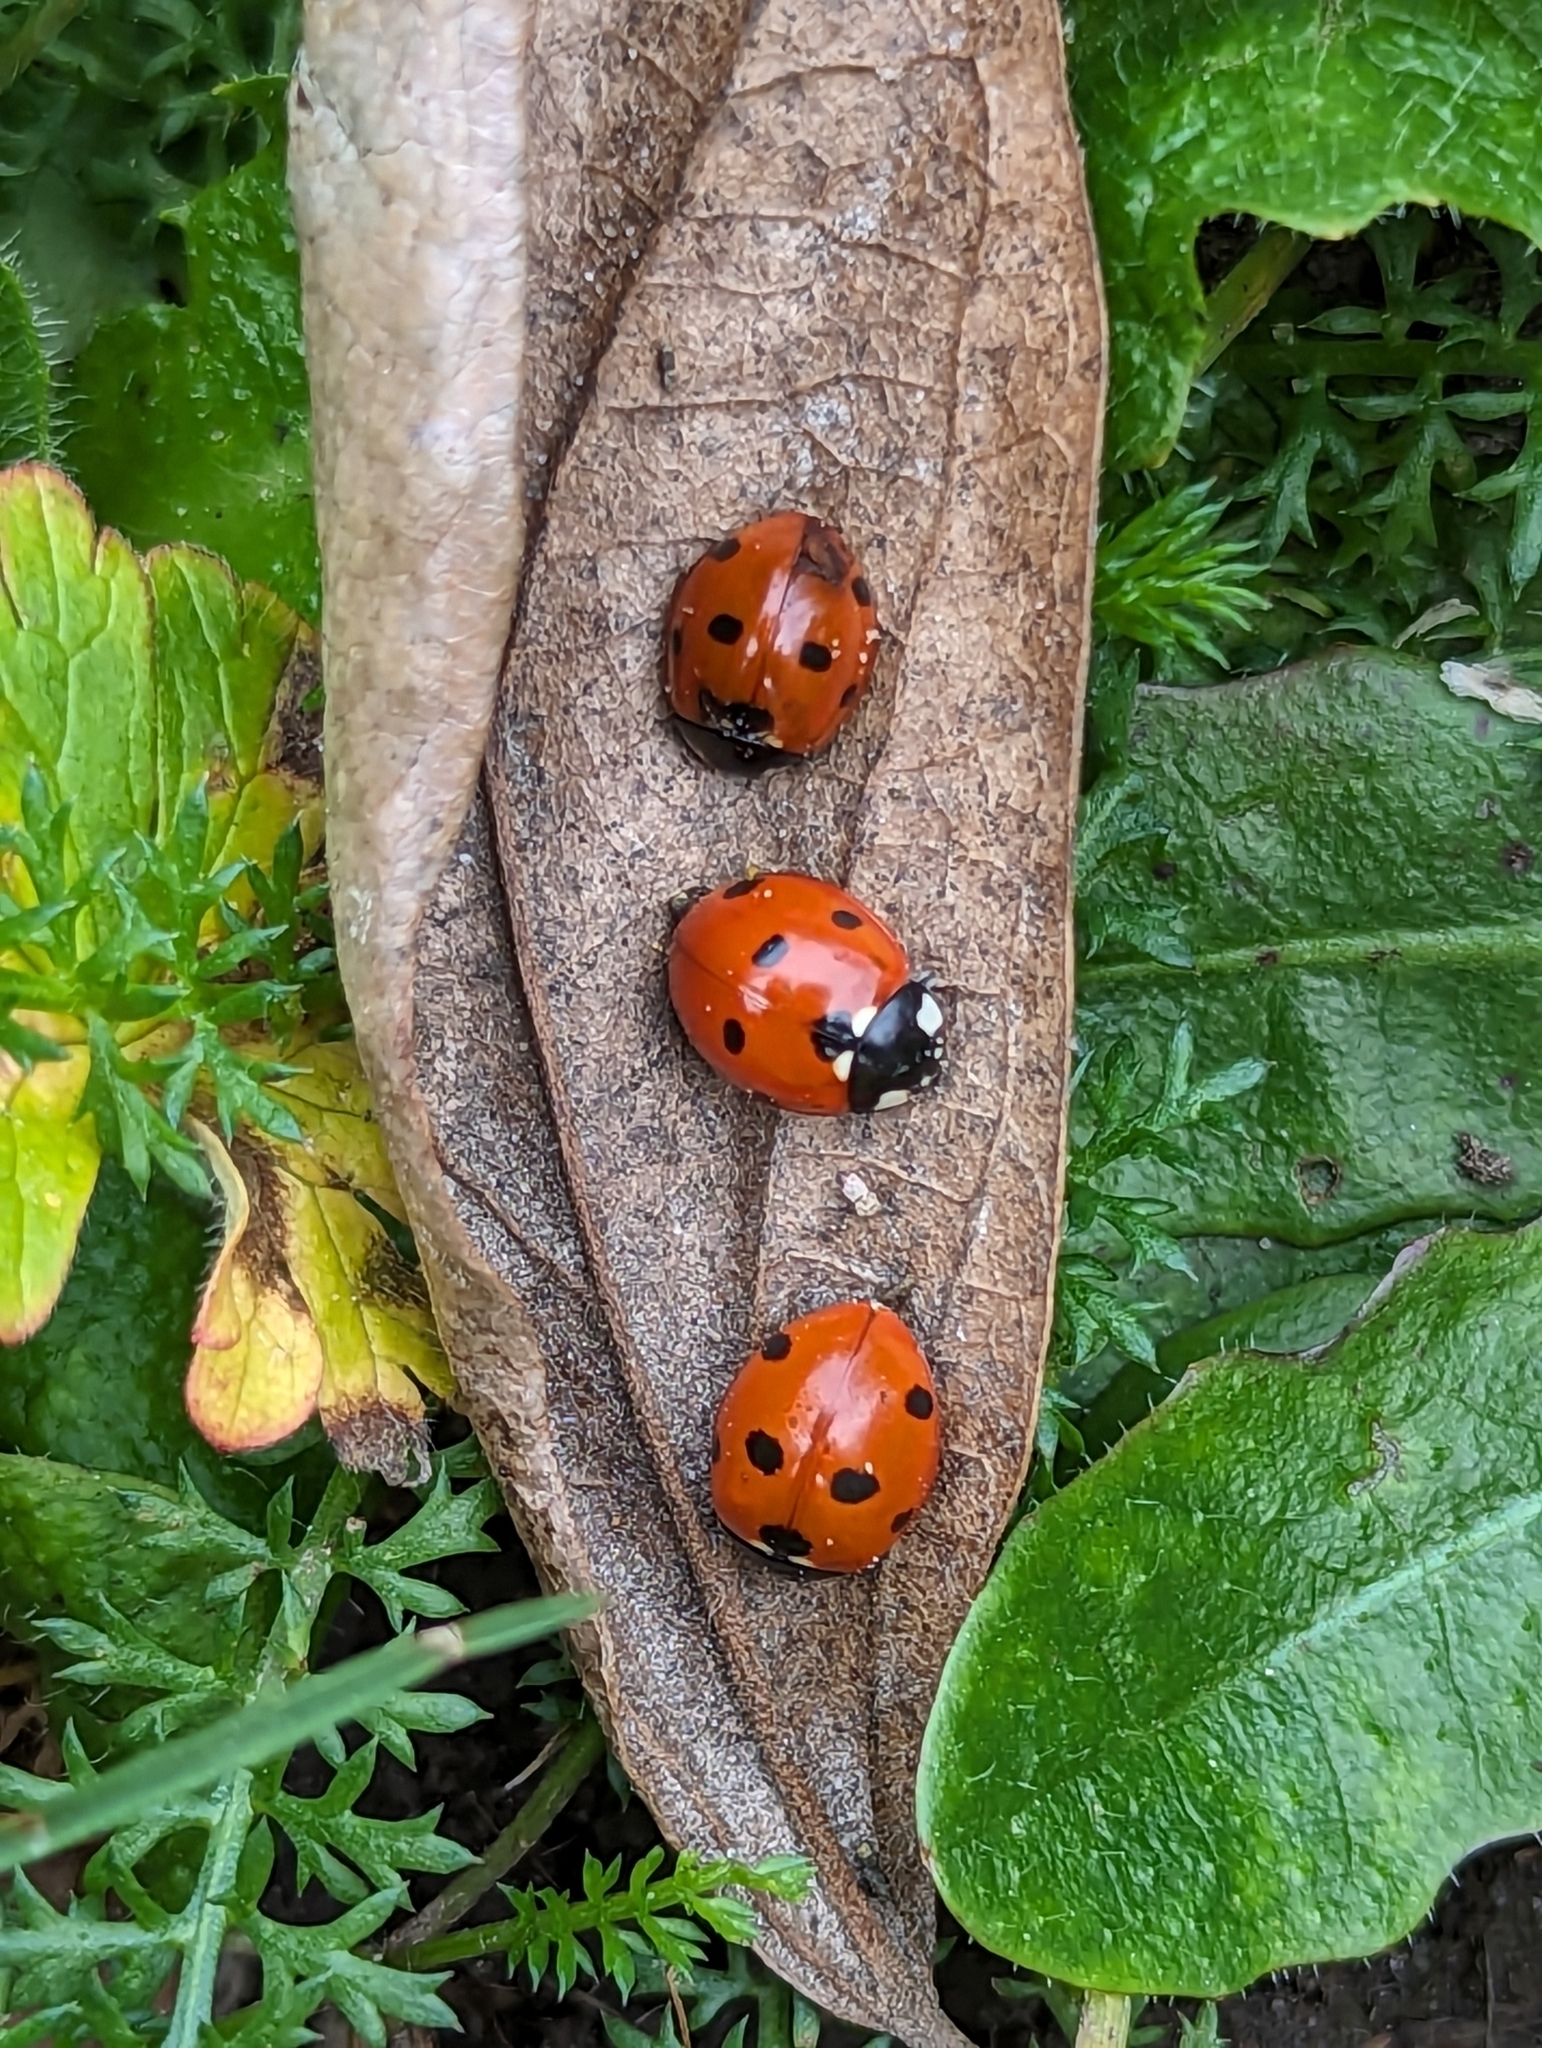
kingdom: Animalia
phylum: Arthropoda
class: Insecta
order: Coleoptera
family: Coccinellidae
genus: Coccinella
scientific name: Coccinella septempunctata
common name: Sevenspotted lady beetle
